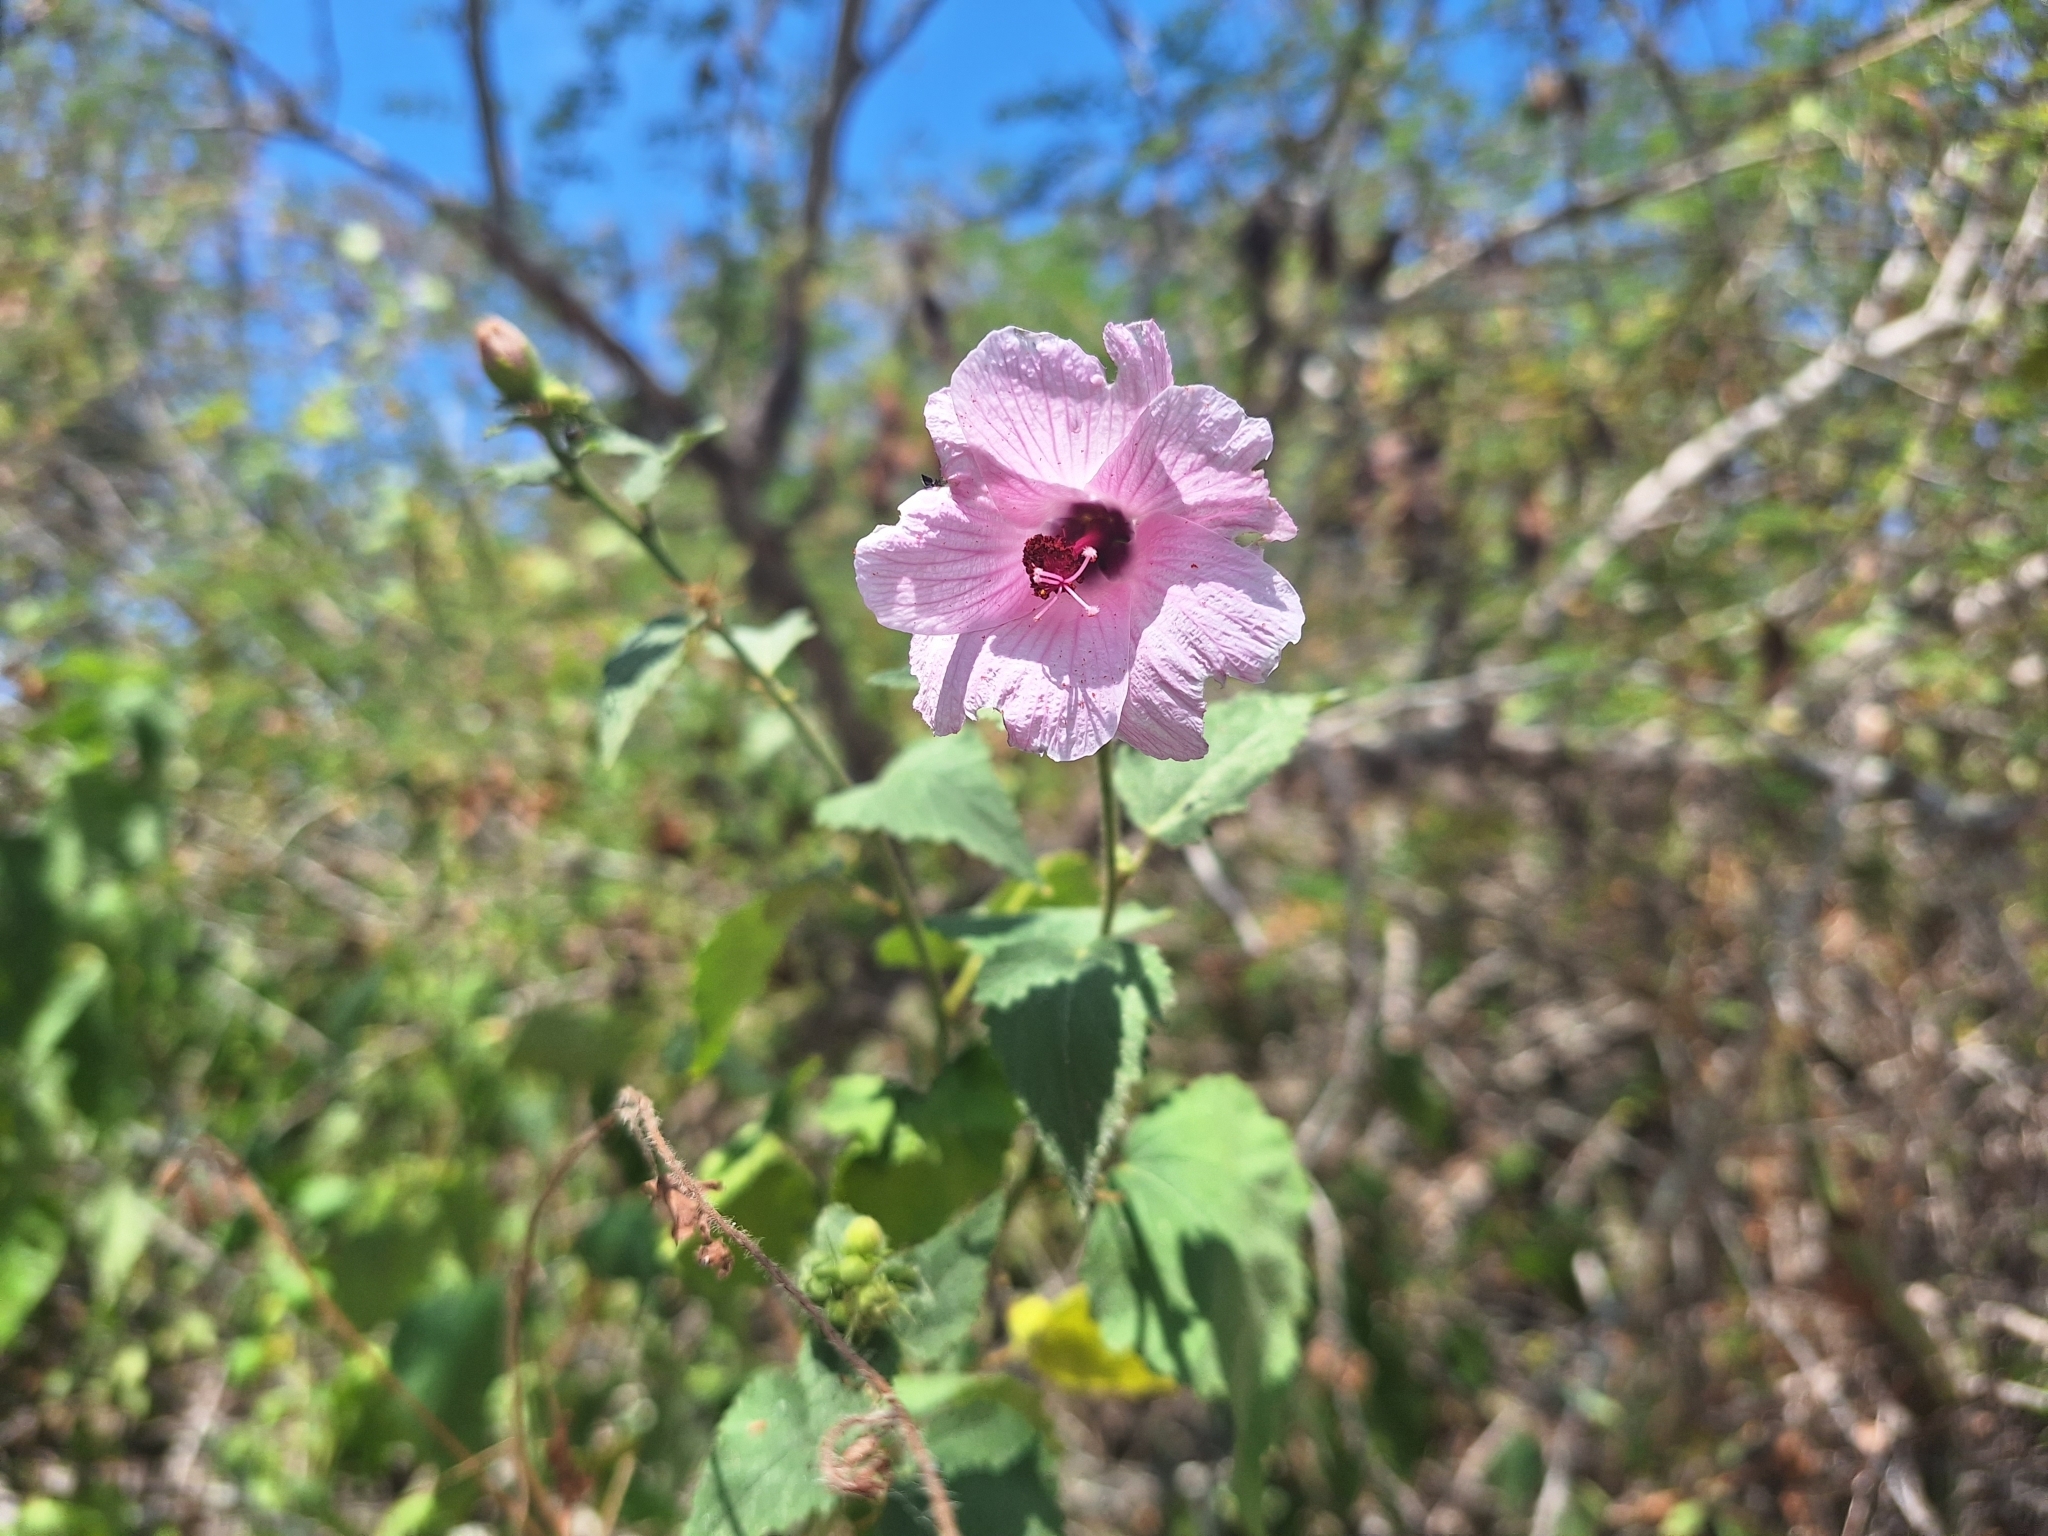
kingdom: Plantae
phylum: Tracheophyta
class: Magnoliopsida
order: Malvales
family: Malvaceae
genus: Hibiscus
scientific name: Hibiscus escobariae
